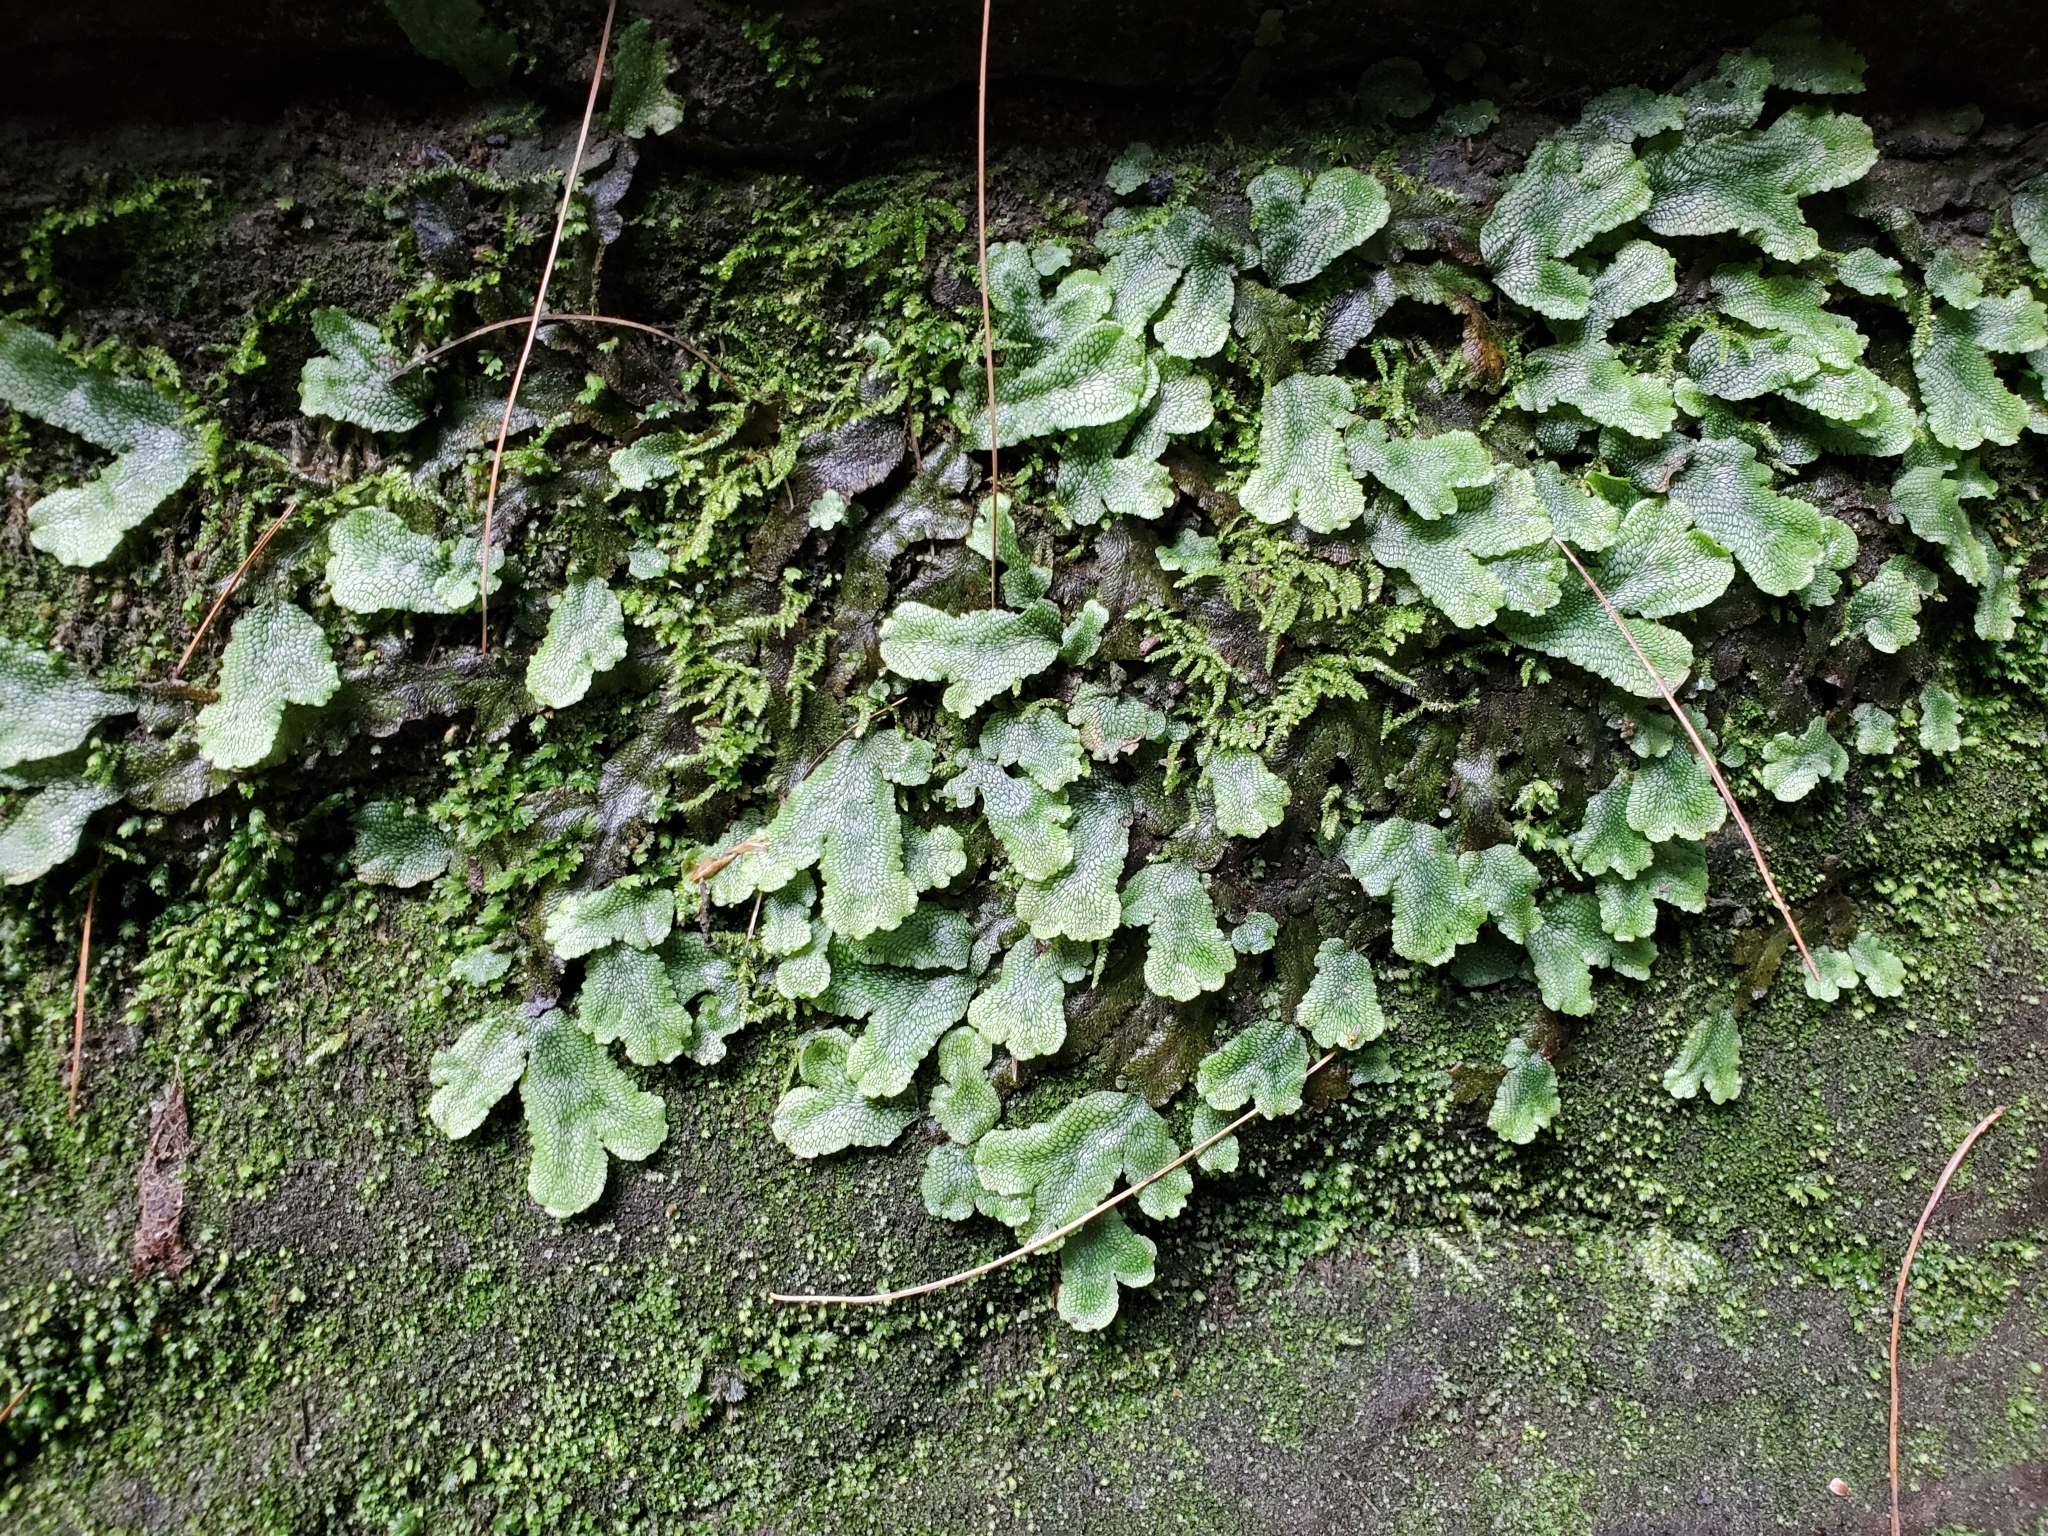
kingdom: Plantae
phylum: Marchantiophyta
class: Marchantiopsida
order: Marchantiales
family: Conocephalaceae
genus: Conocephalum
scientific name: Conocephalum salebrosum
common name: Cat-tongue liverwort
